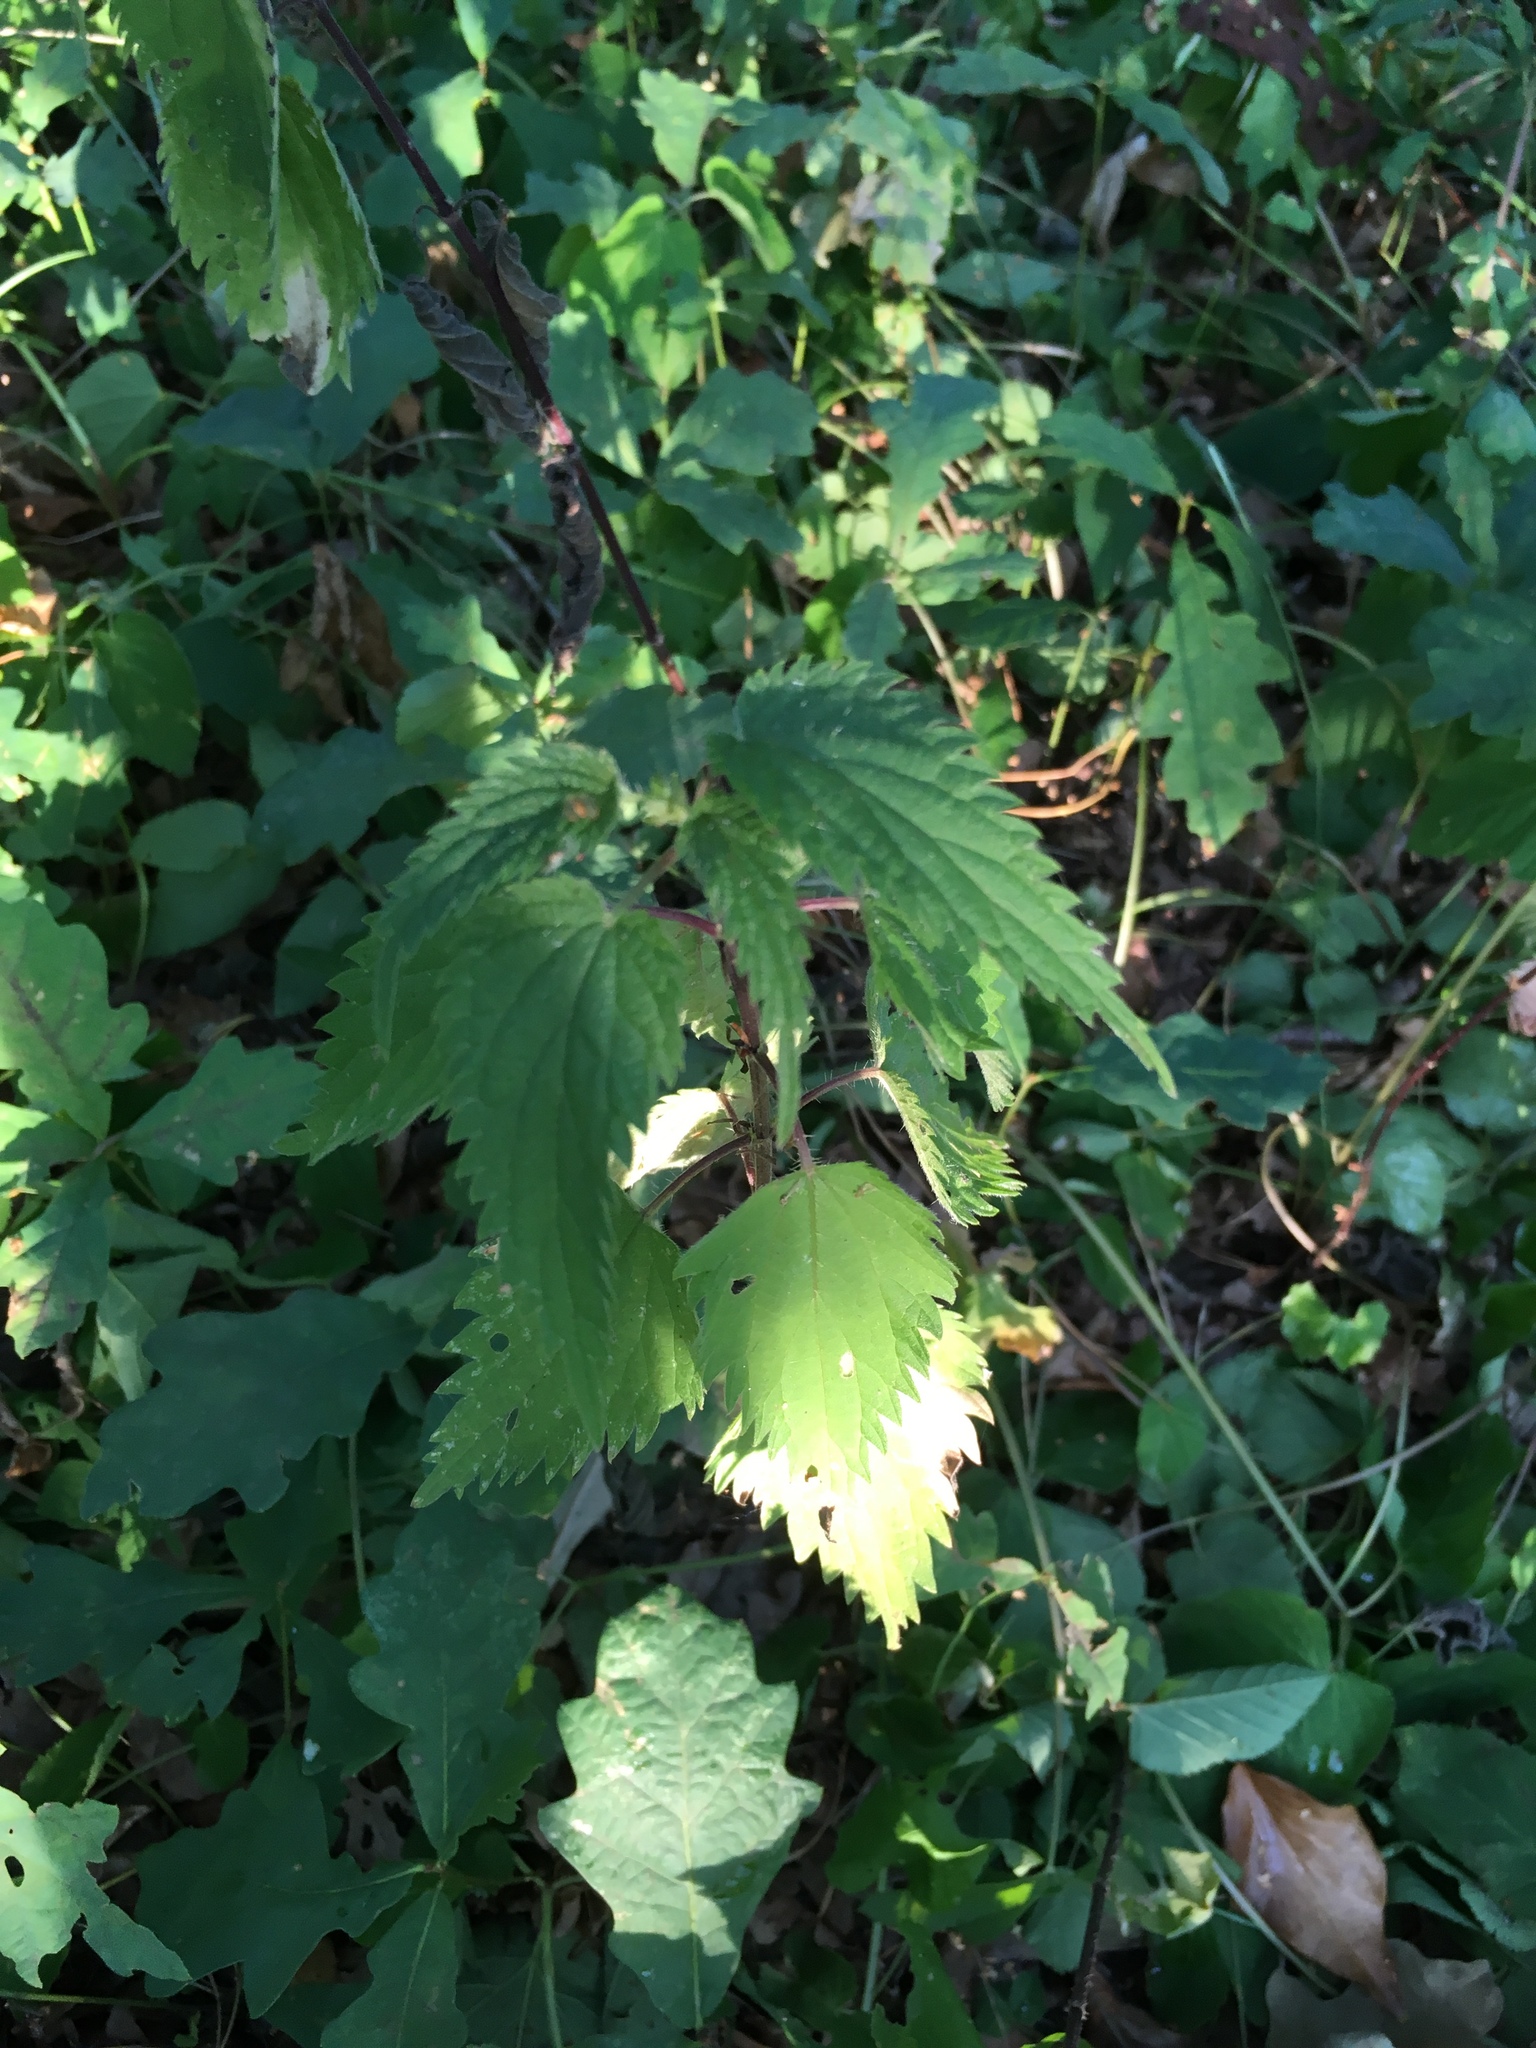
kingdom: Plantae
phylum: Tracheophyta
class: Magnoliopsida
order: Rosales
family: Urticaceae
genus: Urtica
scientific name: Urtica dioica
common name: Common nettle
